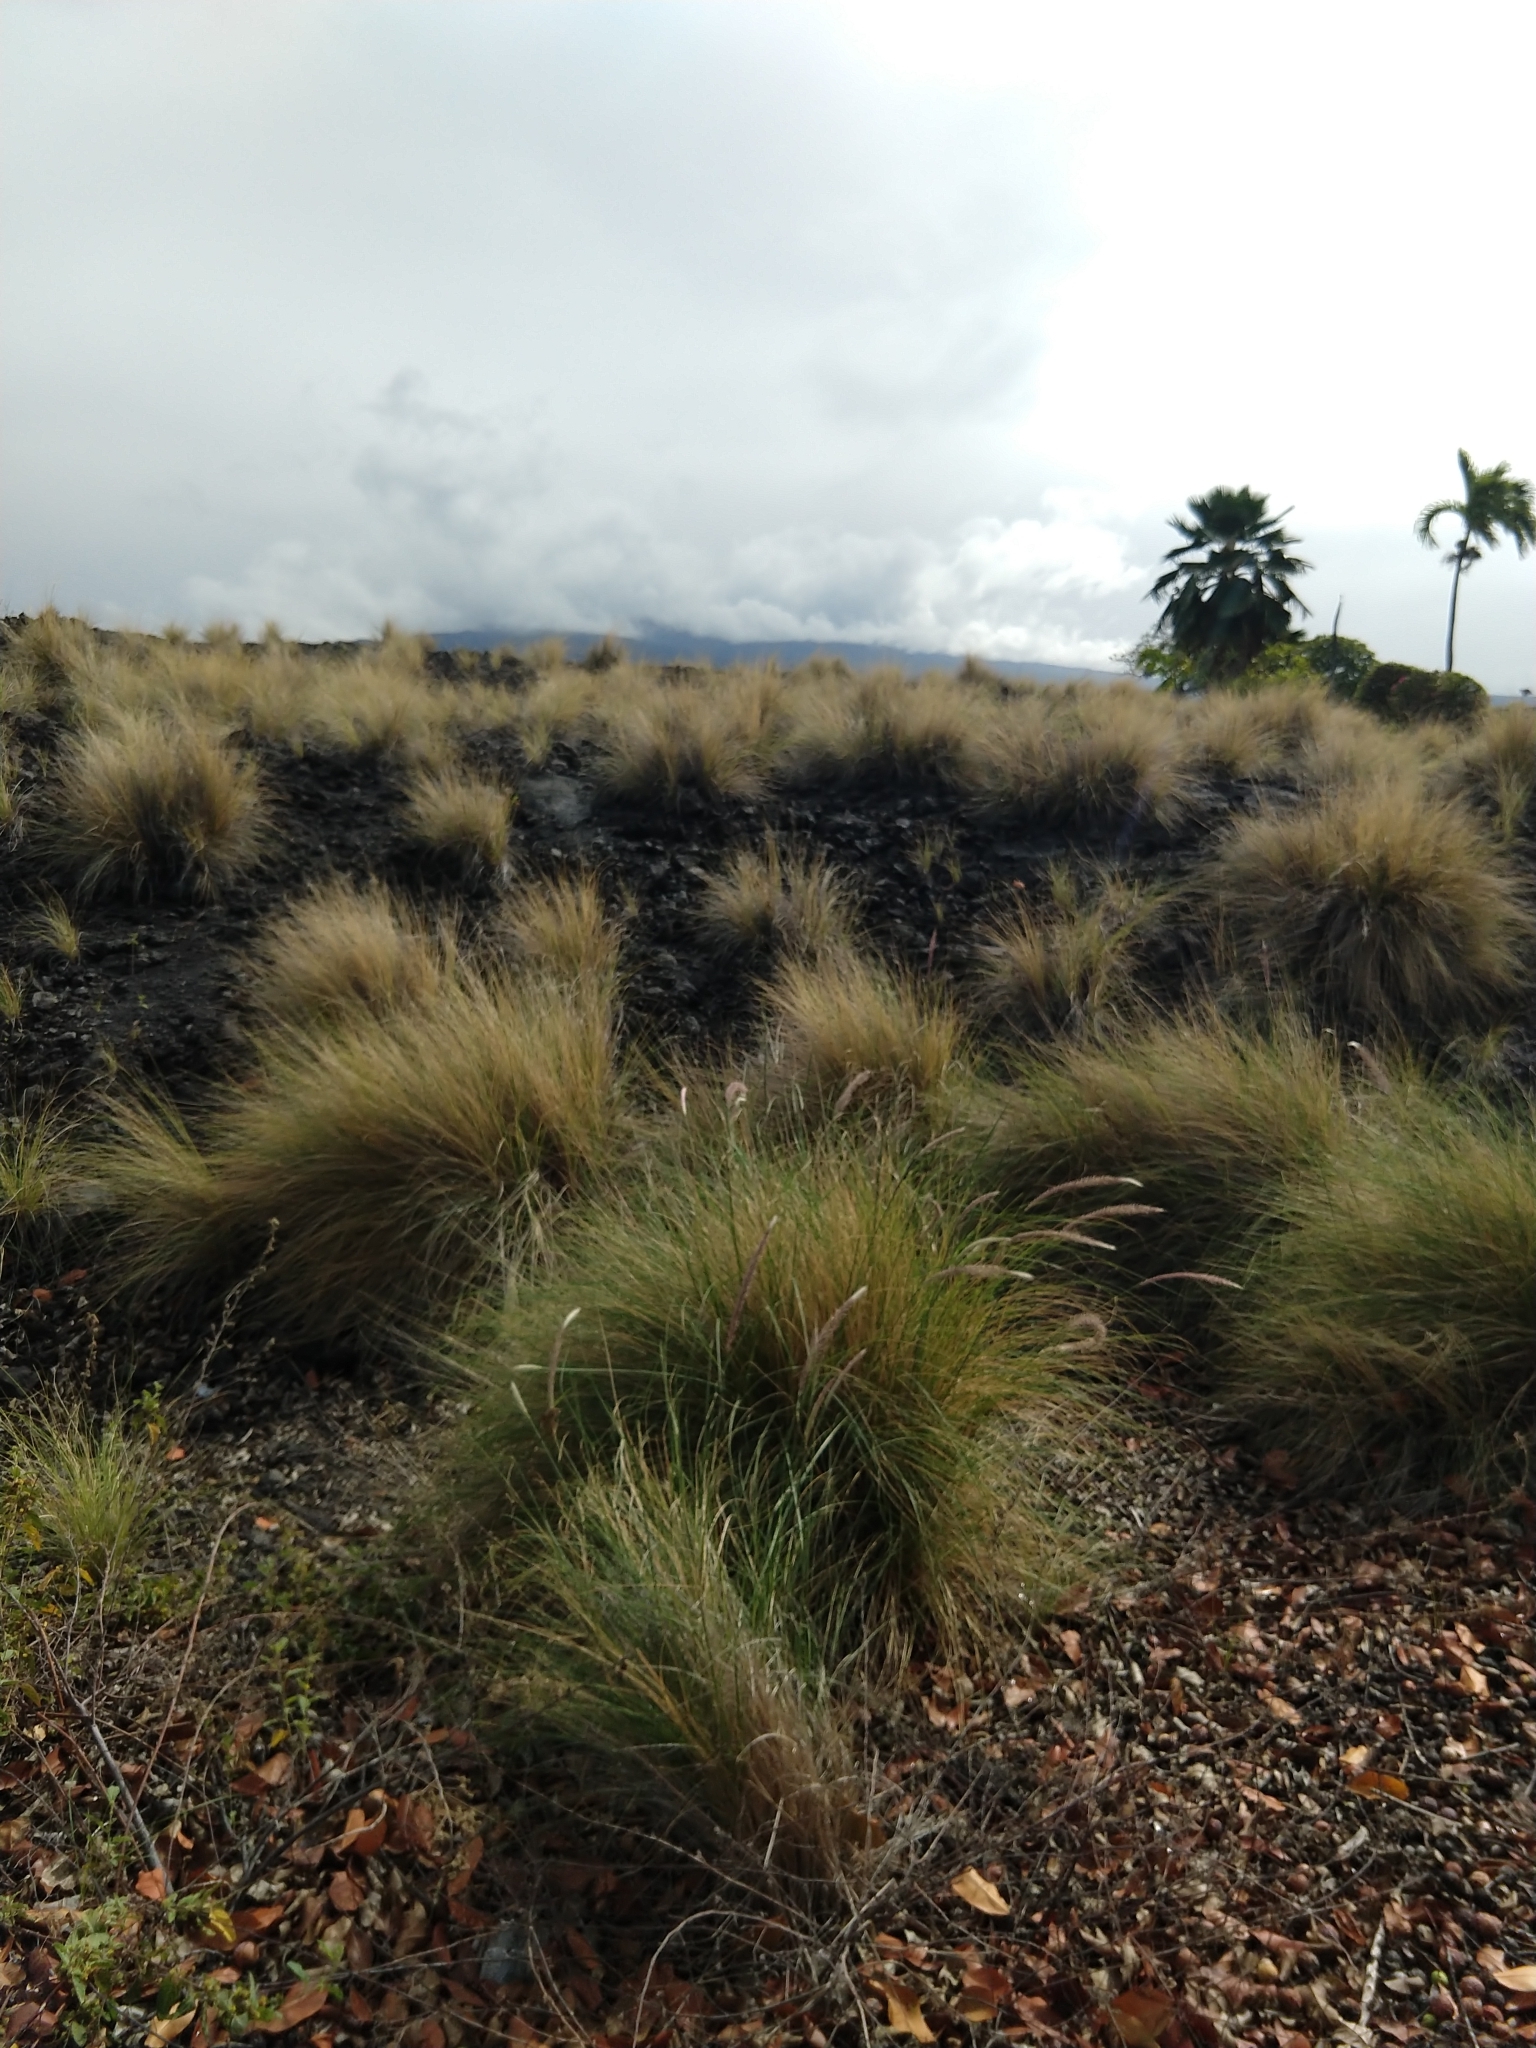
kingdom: Plantae
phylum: Tracheophyta
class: Liliopsida
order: Poales
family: Poaceae
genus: Cenchrus
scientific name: Cenchrus setaceus
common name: Crimson fountaingrass
